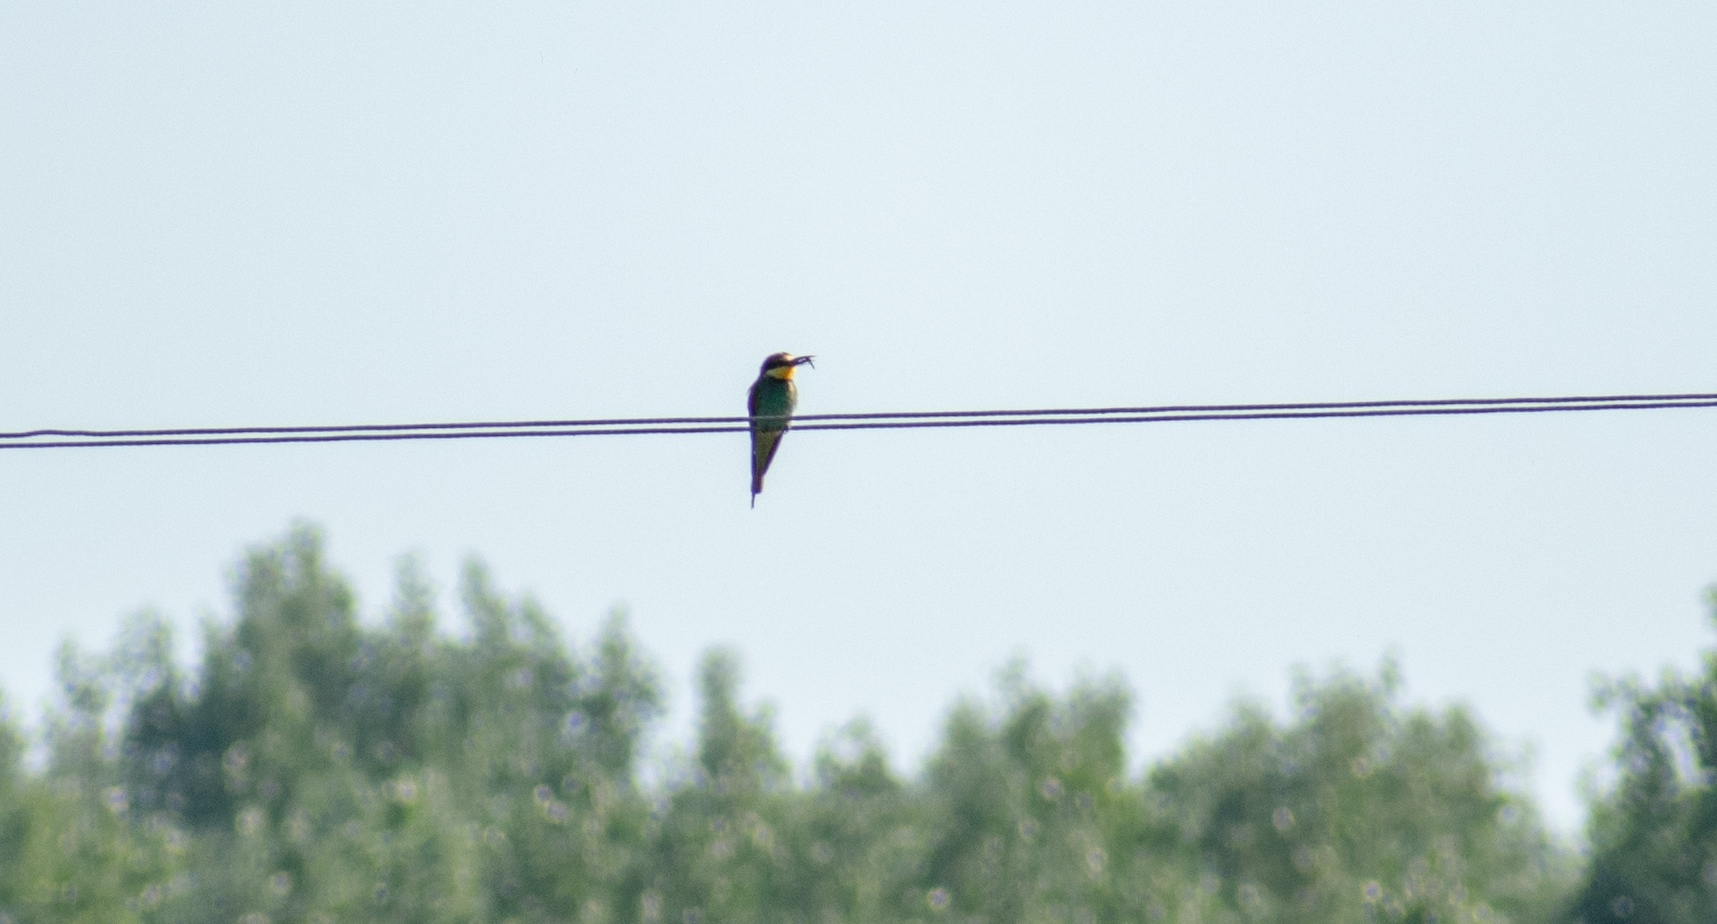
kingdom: Animalia
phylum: Chordata
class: Aves
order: Coraciiformes
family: Meropidae
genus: Merops
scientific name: Merops apiaster
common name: European bee-eater
